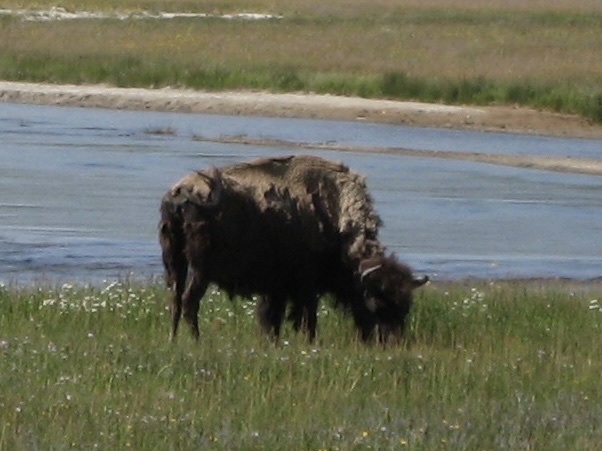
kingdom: Animalia
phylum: Chordata
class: Mammalia
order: Artiodactyla
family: Bovidae
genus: Bison
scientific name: Bison bison
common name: American bison
